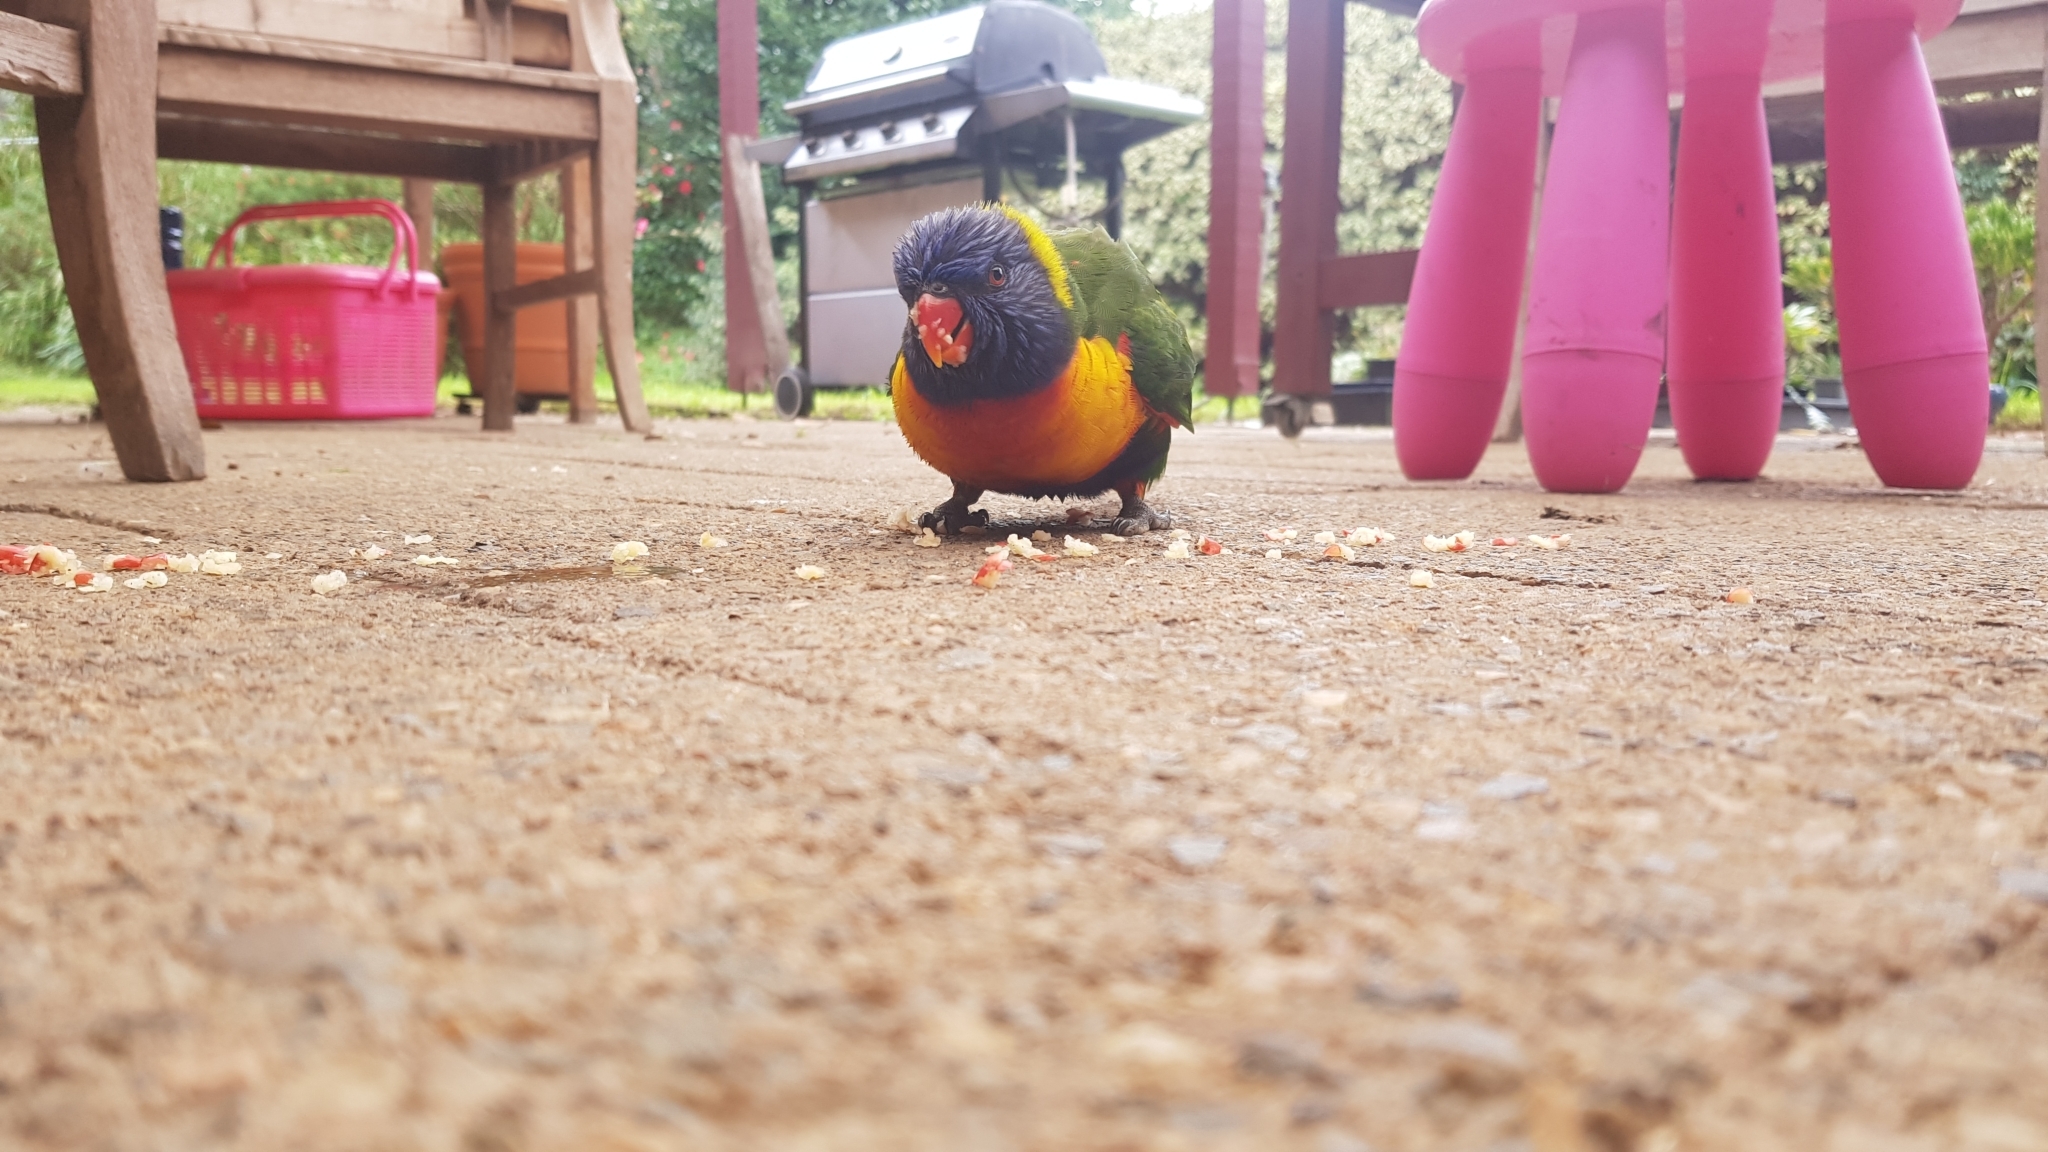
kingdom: Animalia
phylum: Chordata
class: Aves
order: Psittaciformes
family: Psittacidae
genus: Trichoglossus
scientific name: Trichoglossus haematodus
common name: Coconut lorikeet
